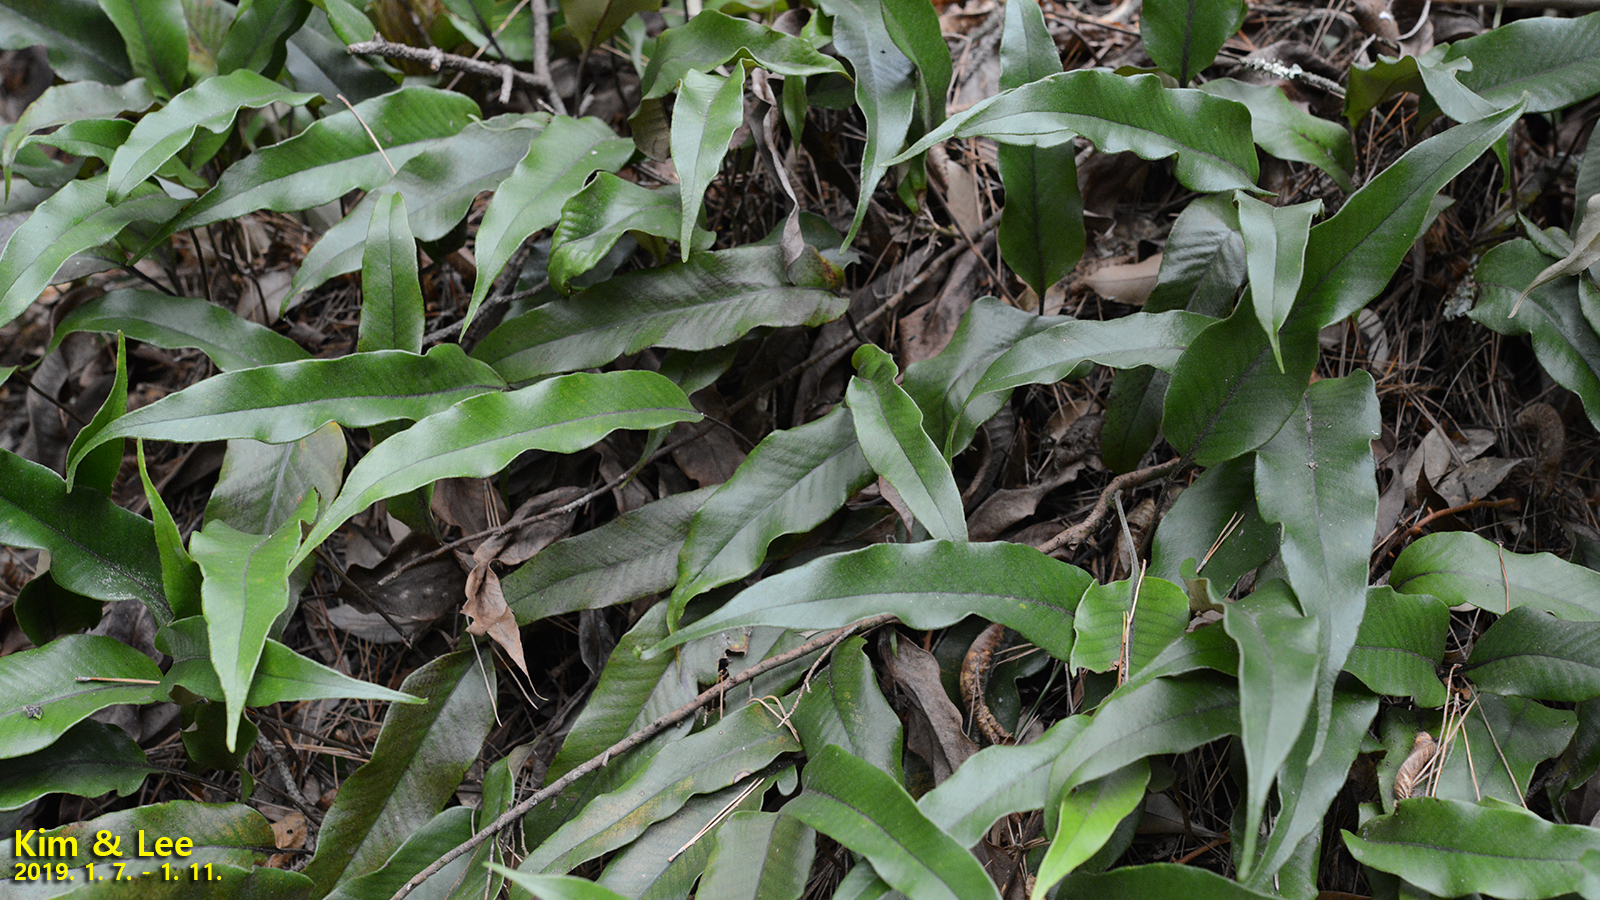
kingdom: Plantae
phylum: Tracheophyta
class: Polypodiopsida
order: Polypodiales
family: Polypodiaceae
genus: Pyrrosia
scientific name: Pyrrosia lingua
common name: Felt fern
